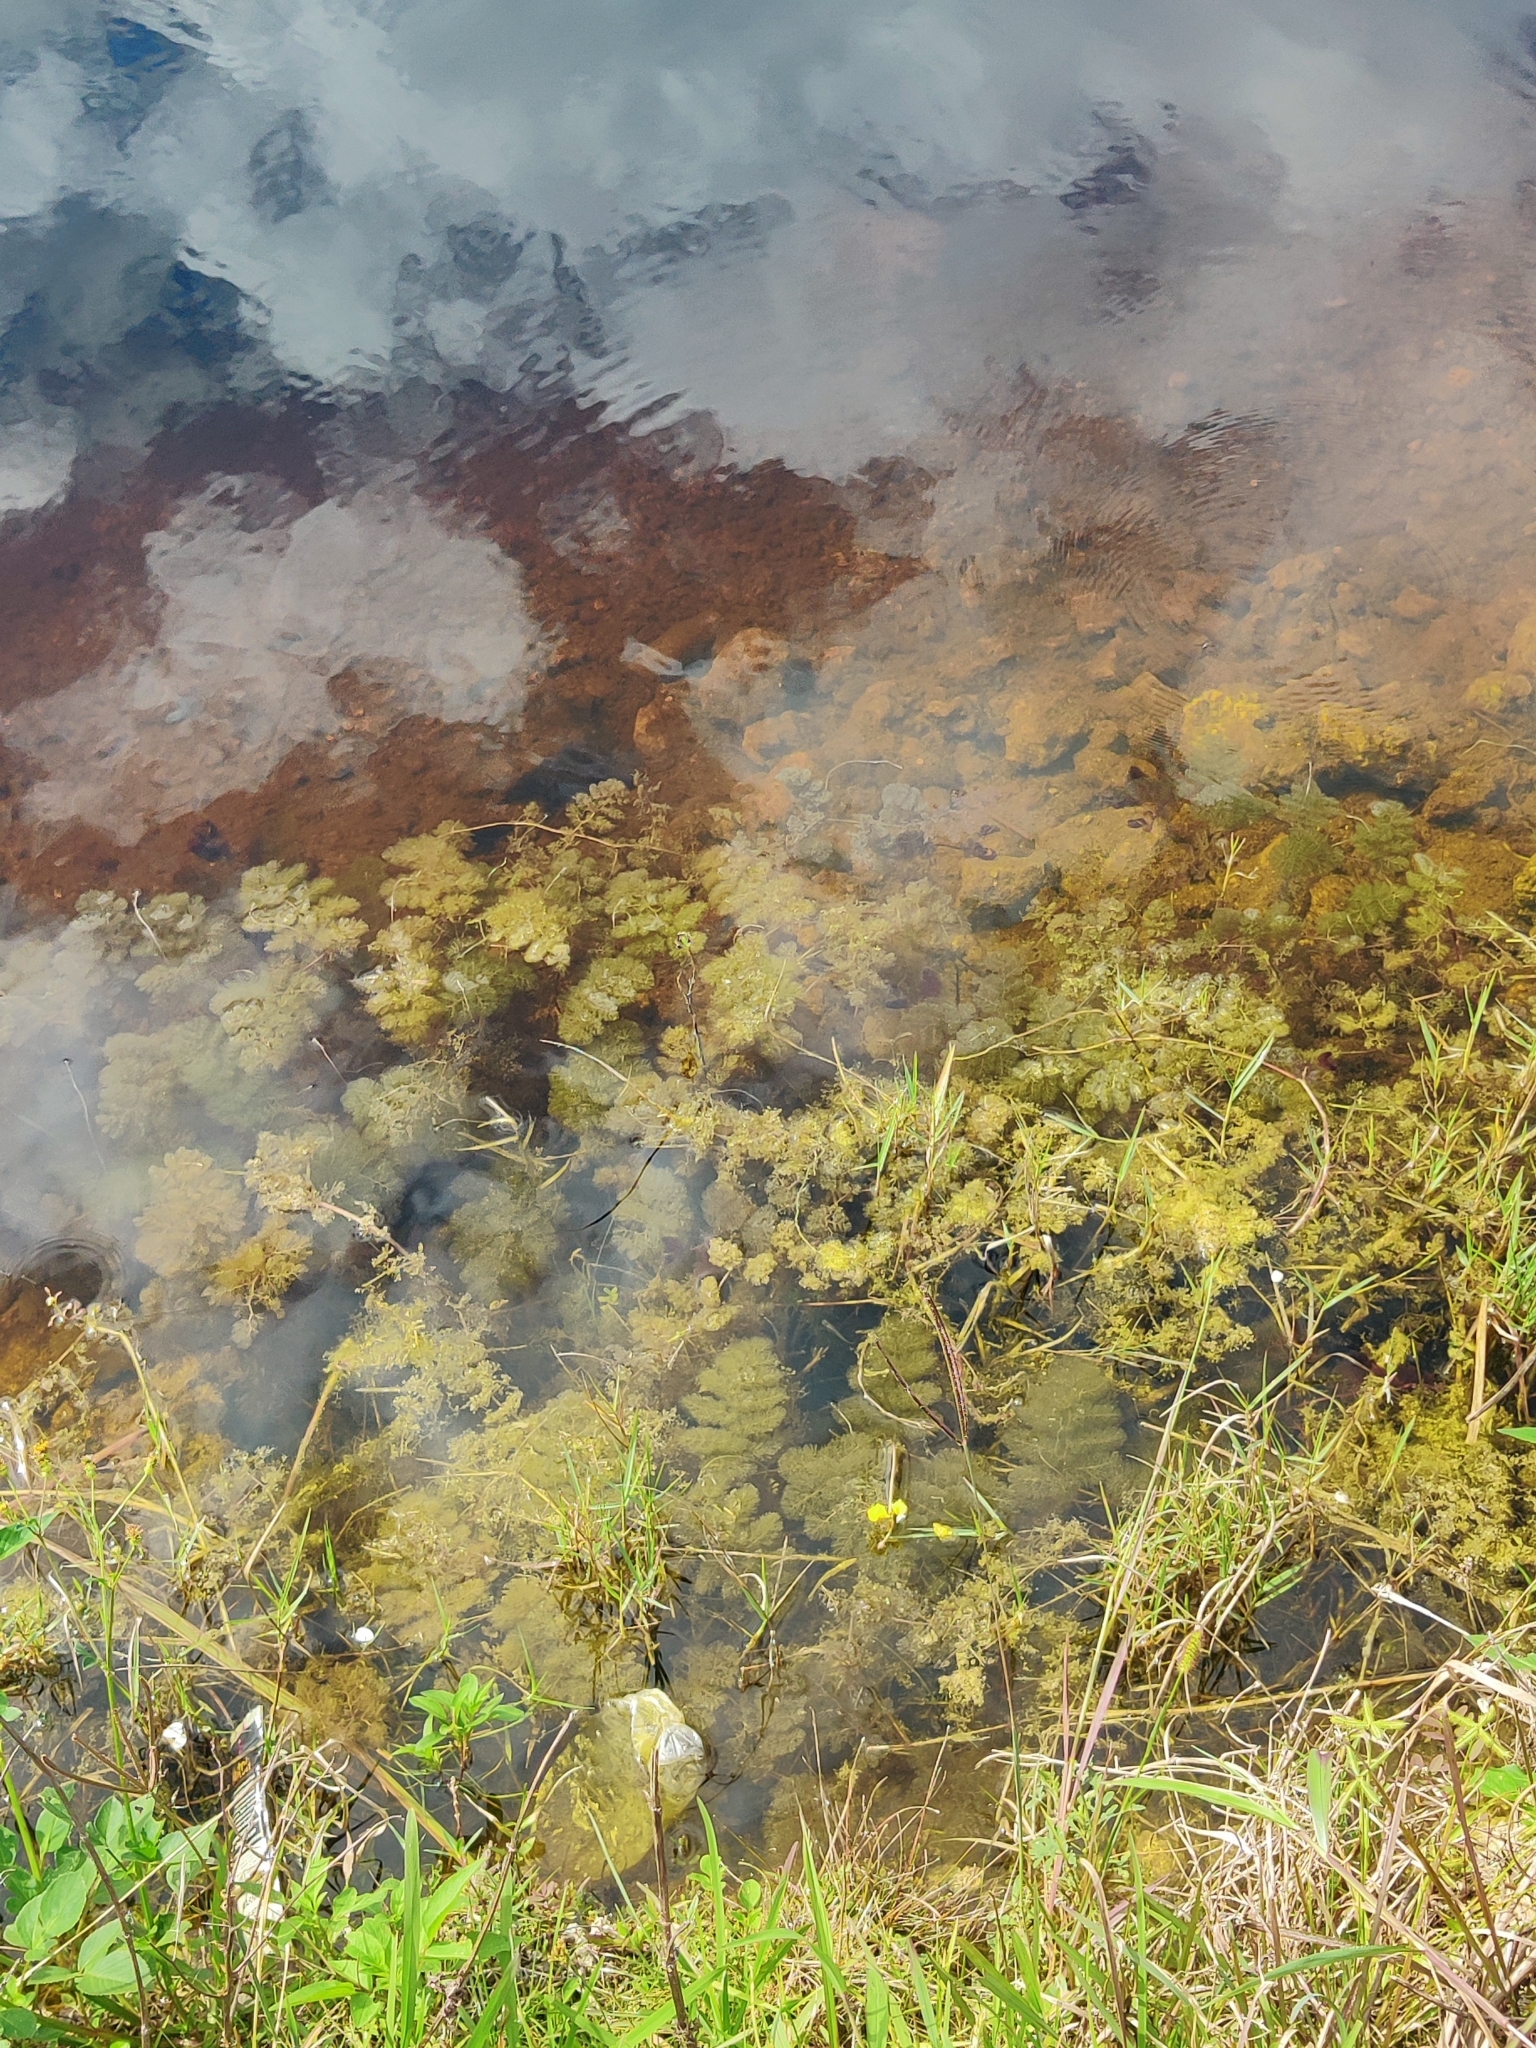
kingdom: Plantae
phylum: Tracheophyta
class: Magnoliopsida
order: Lamiales
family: Lentibulariaceae
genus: Utricularia
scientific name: Utricularia foliosa
